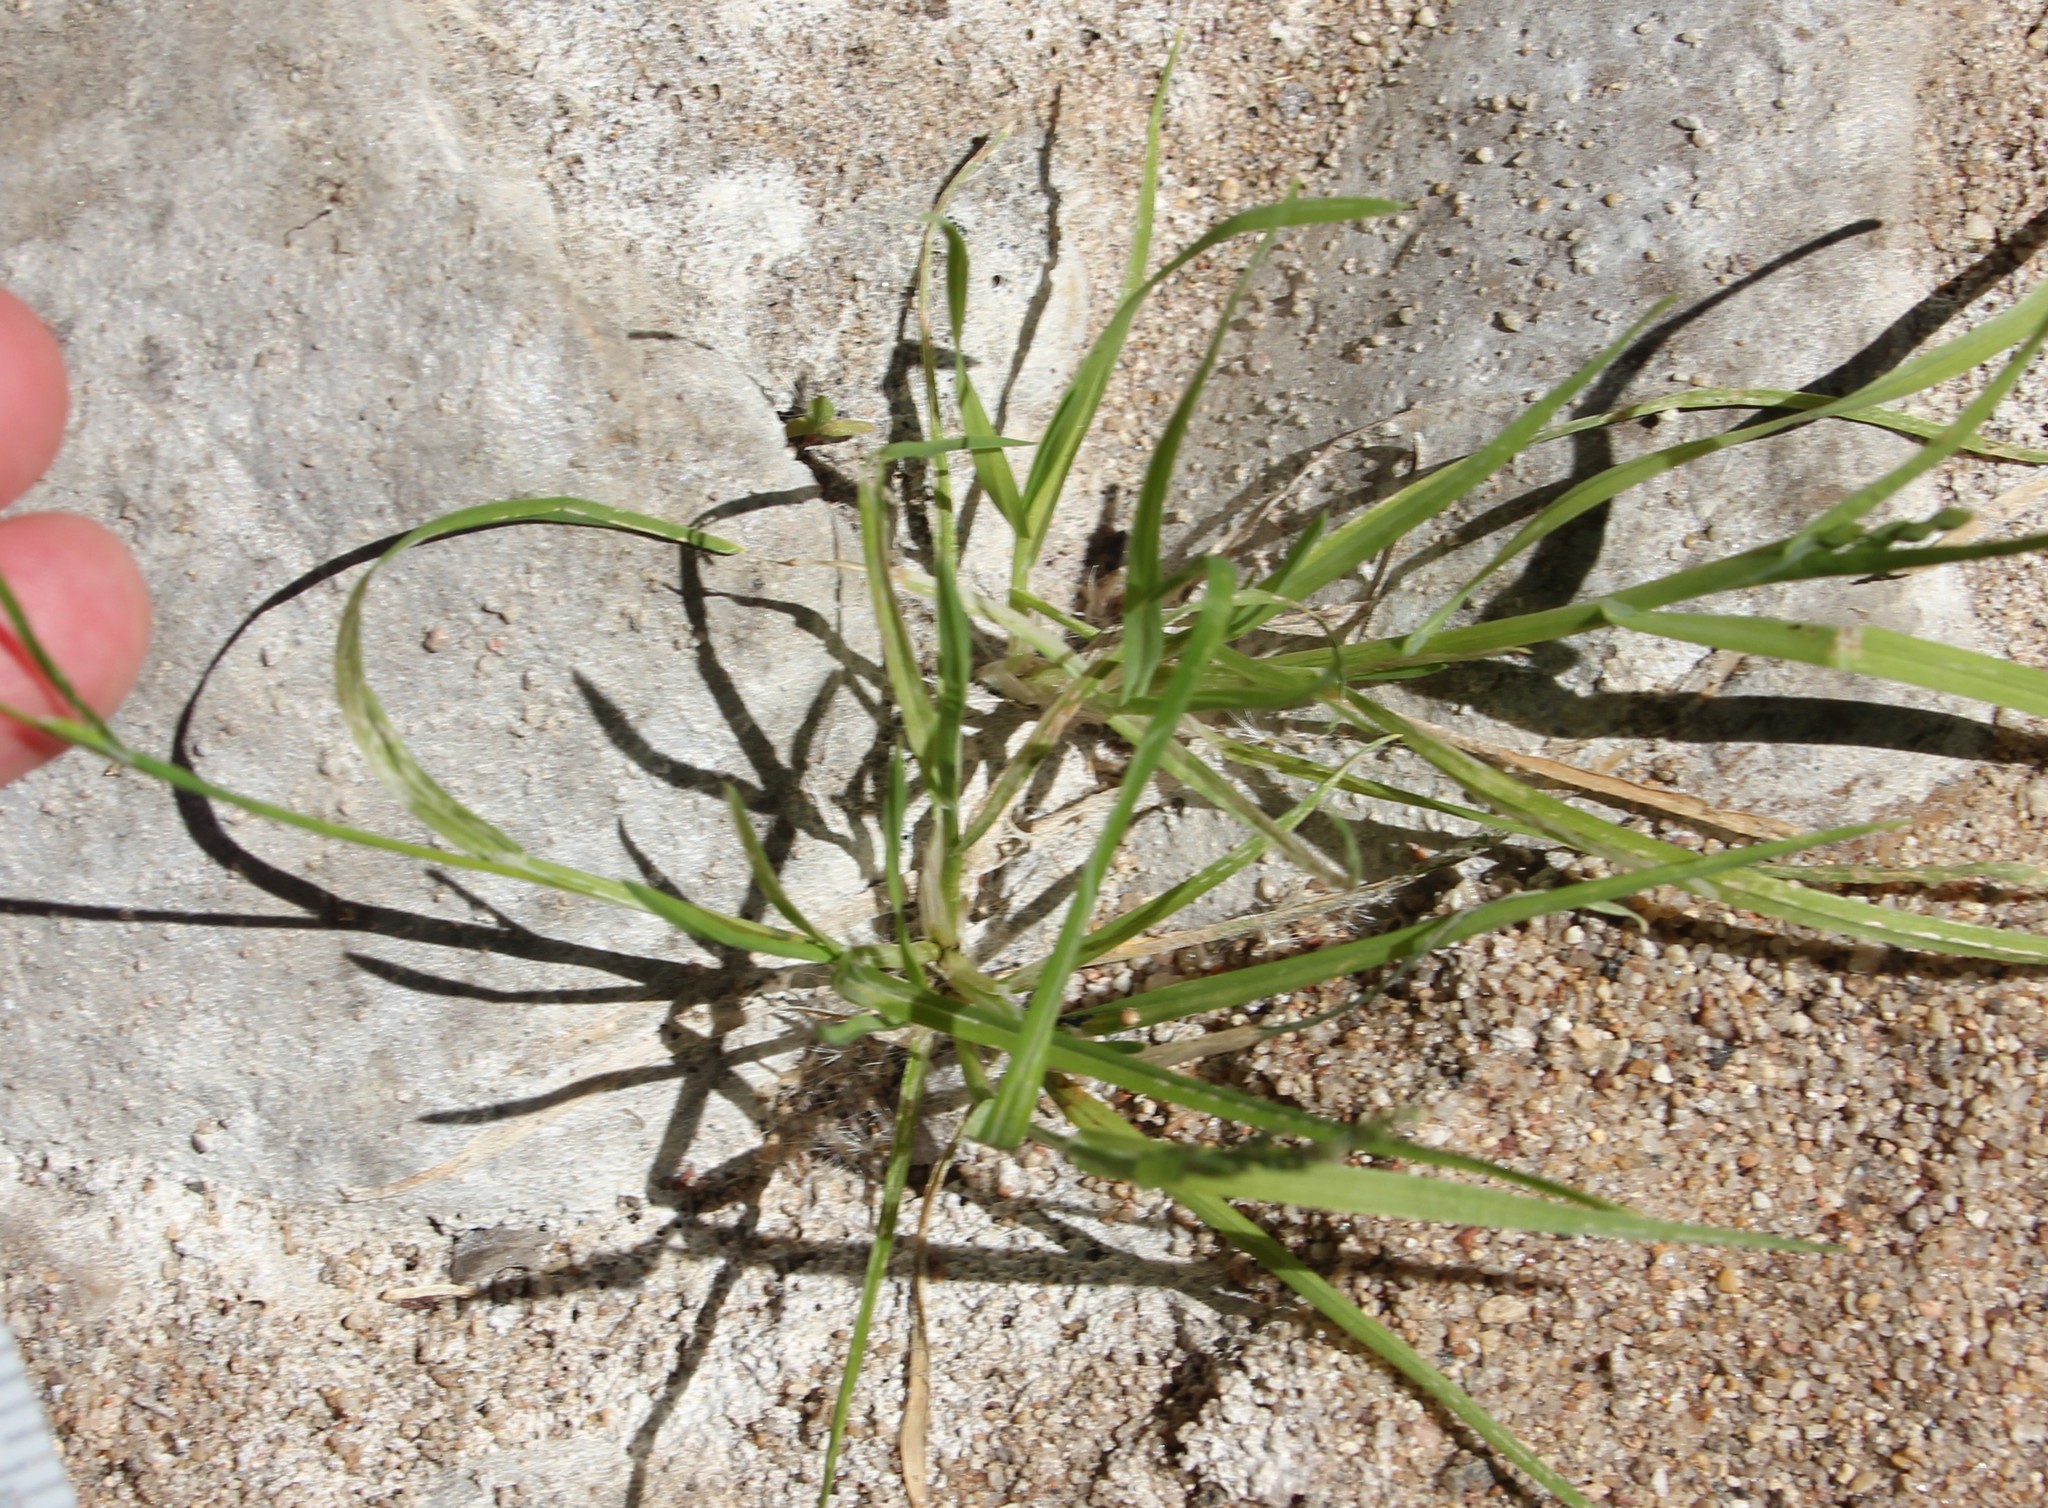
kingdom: Plantae
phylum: Tracheophyta
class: Liliopsida
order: Poales
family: Poaceae
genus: Poa
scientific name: Poa annua
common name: Annual bluegrass
